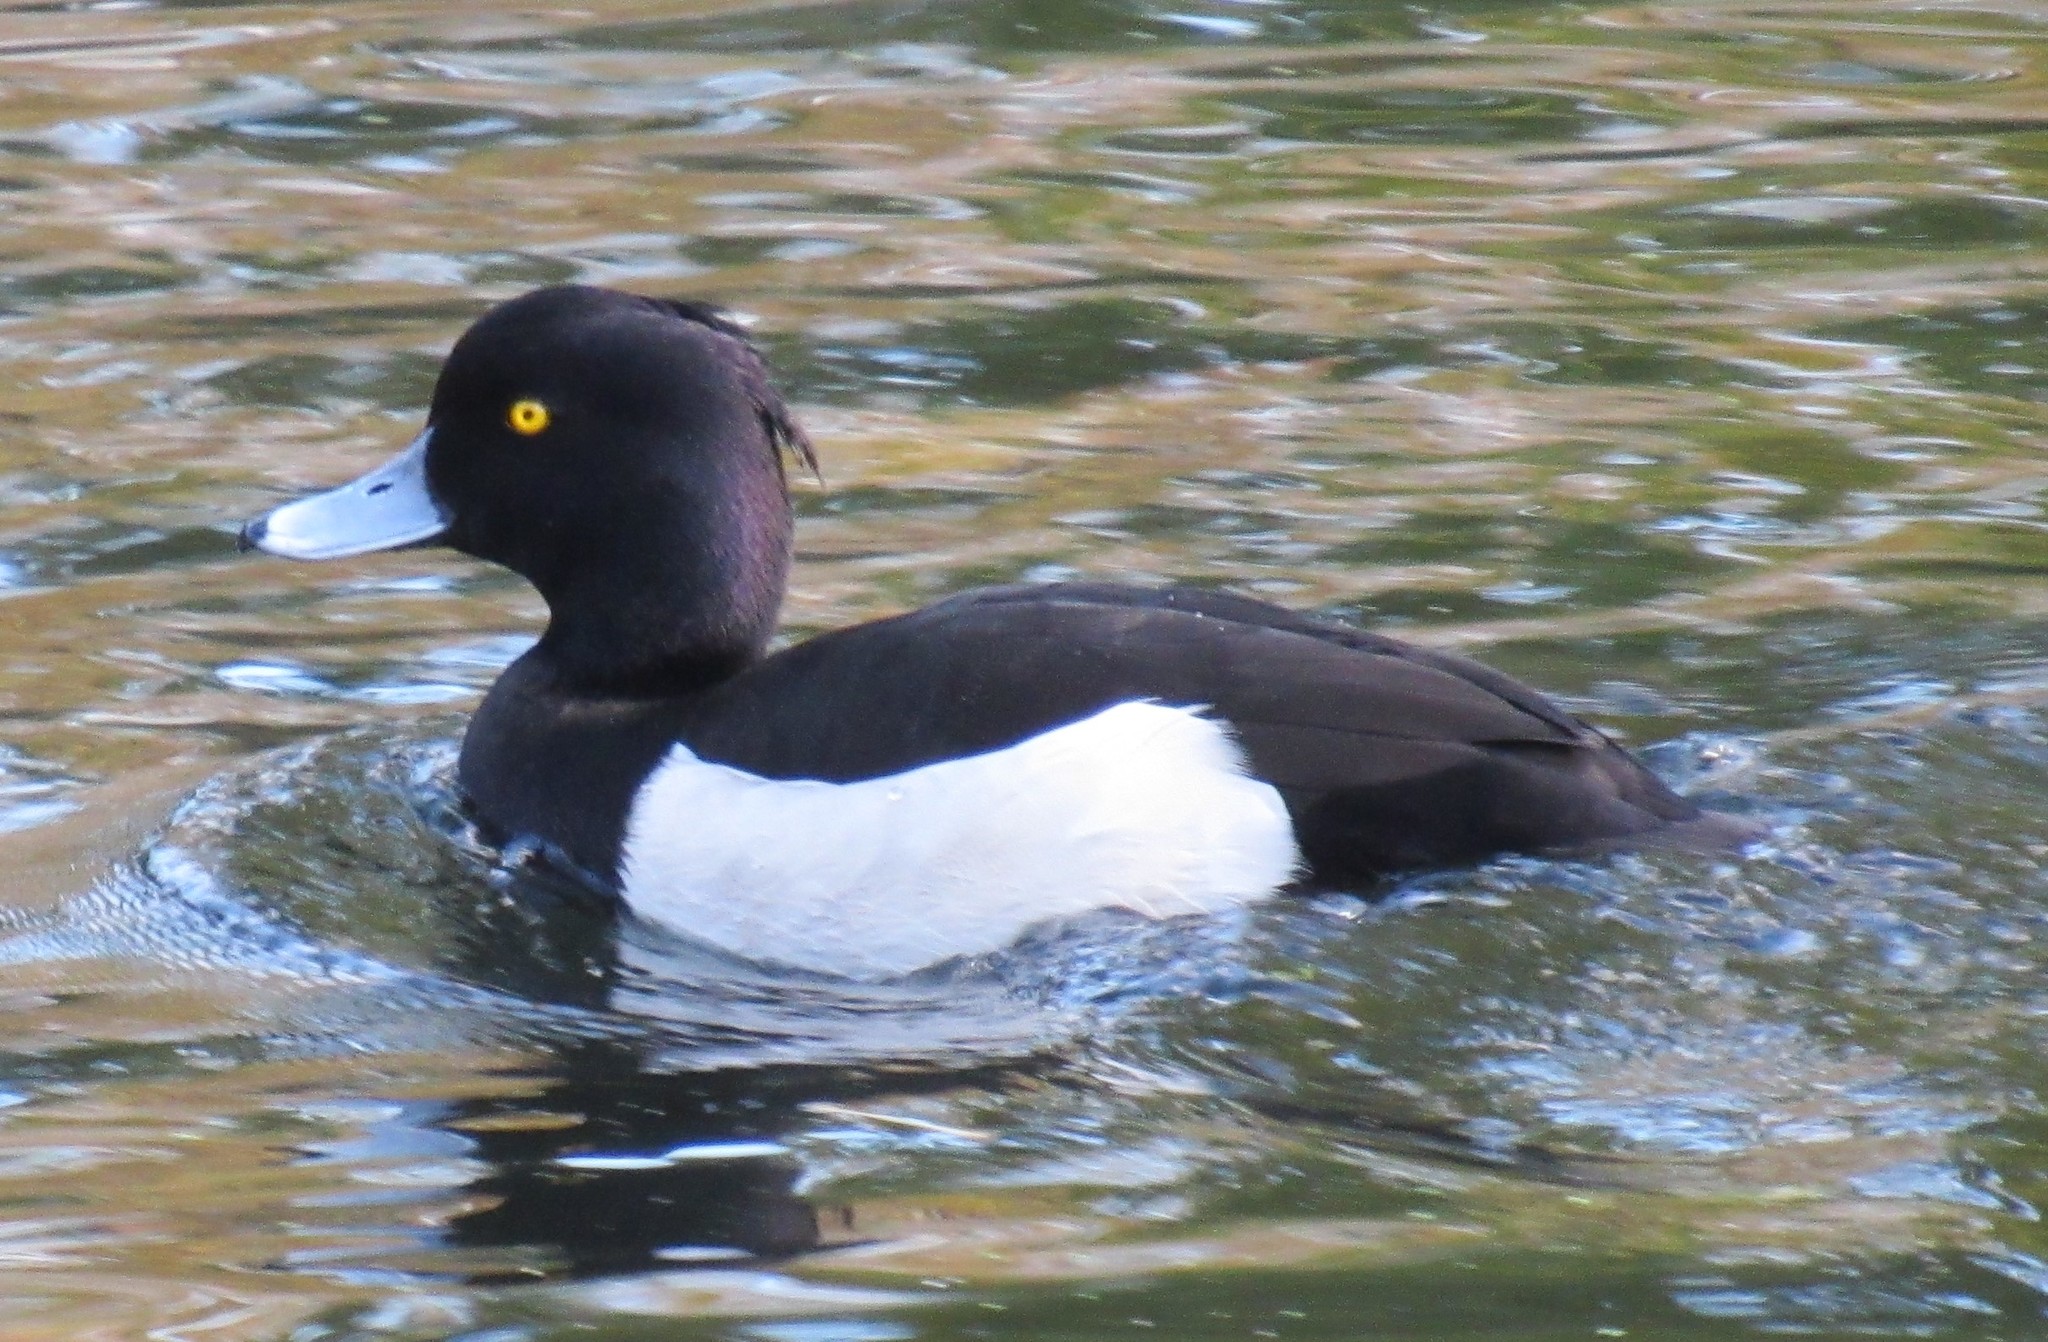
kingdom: Animalia
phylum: Chordata
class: Aves
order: Anseriformes
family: Anatidae
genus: Aythya
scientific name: Aythya fuligula
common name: Tufted duck
